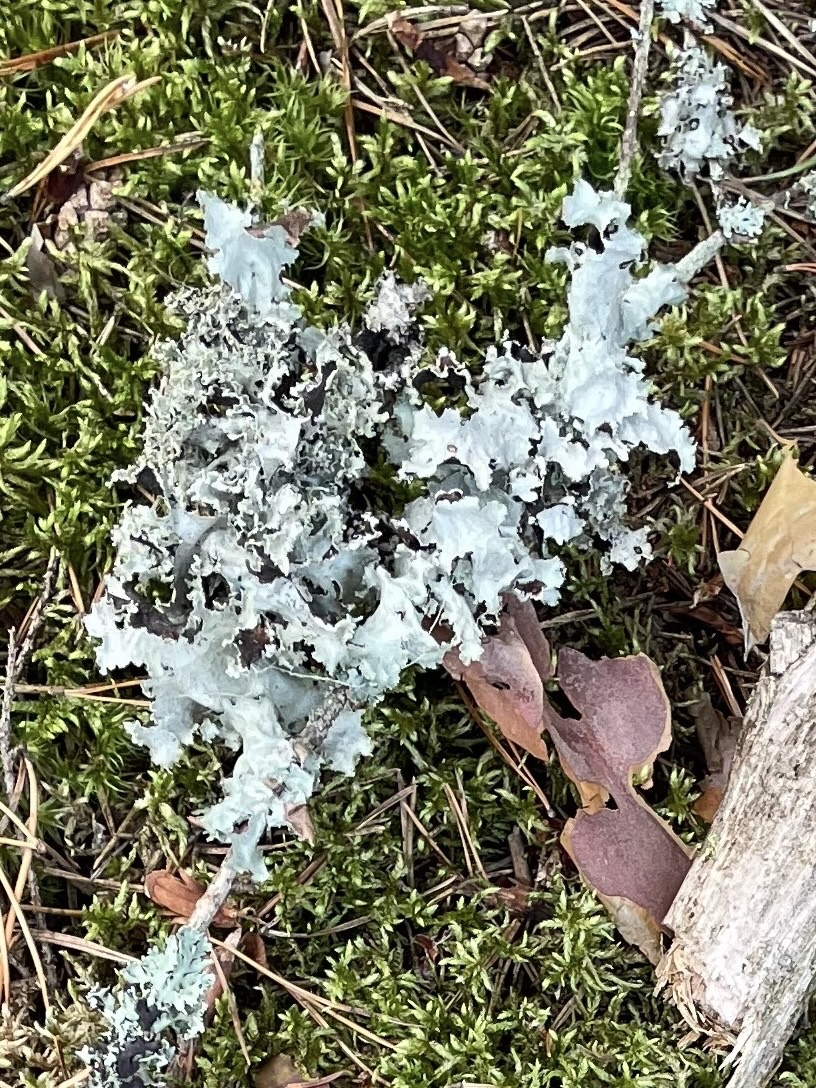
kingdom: Fungi
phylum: Ascomycota
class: Lecanoromycetes
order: Lecanorales
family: Parmeliaceae
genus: Platismatia
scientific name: Platismatia glauca
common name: Varied rag lichen
